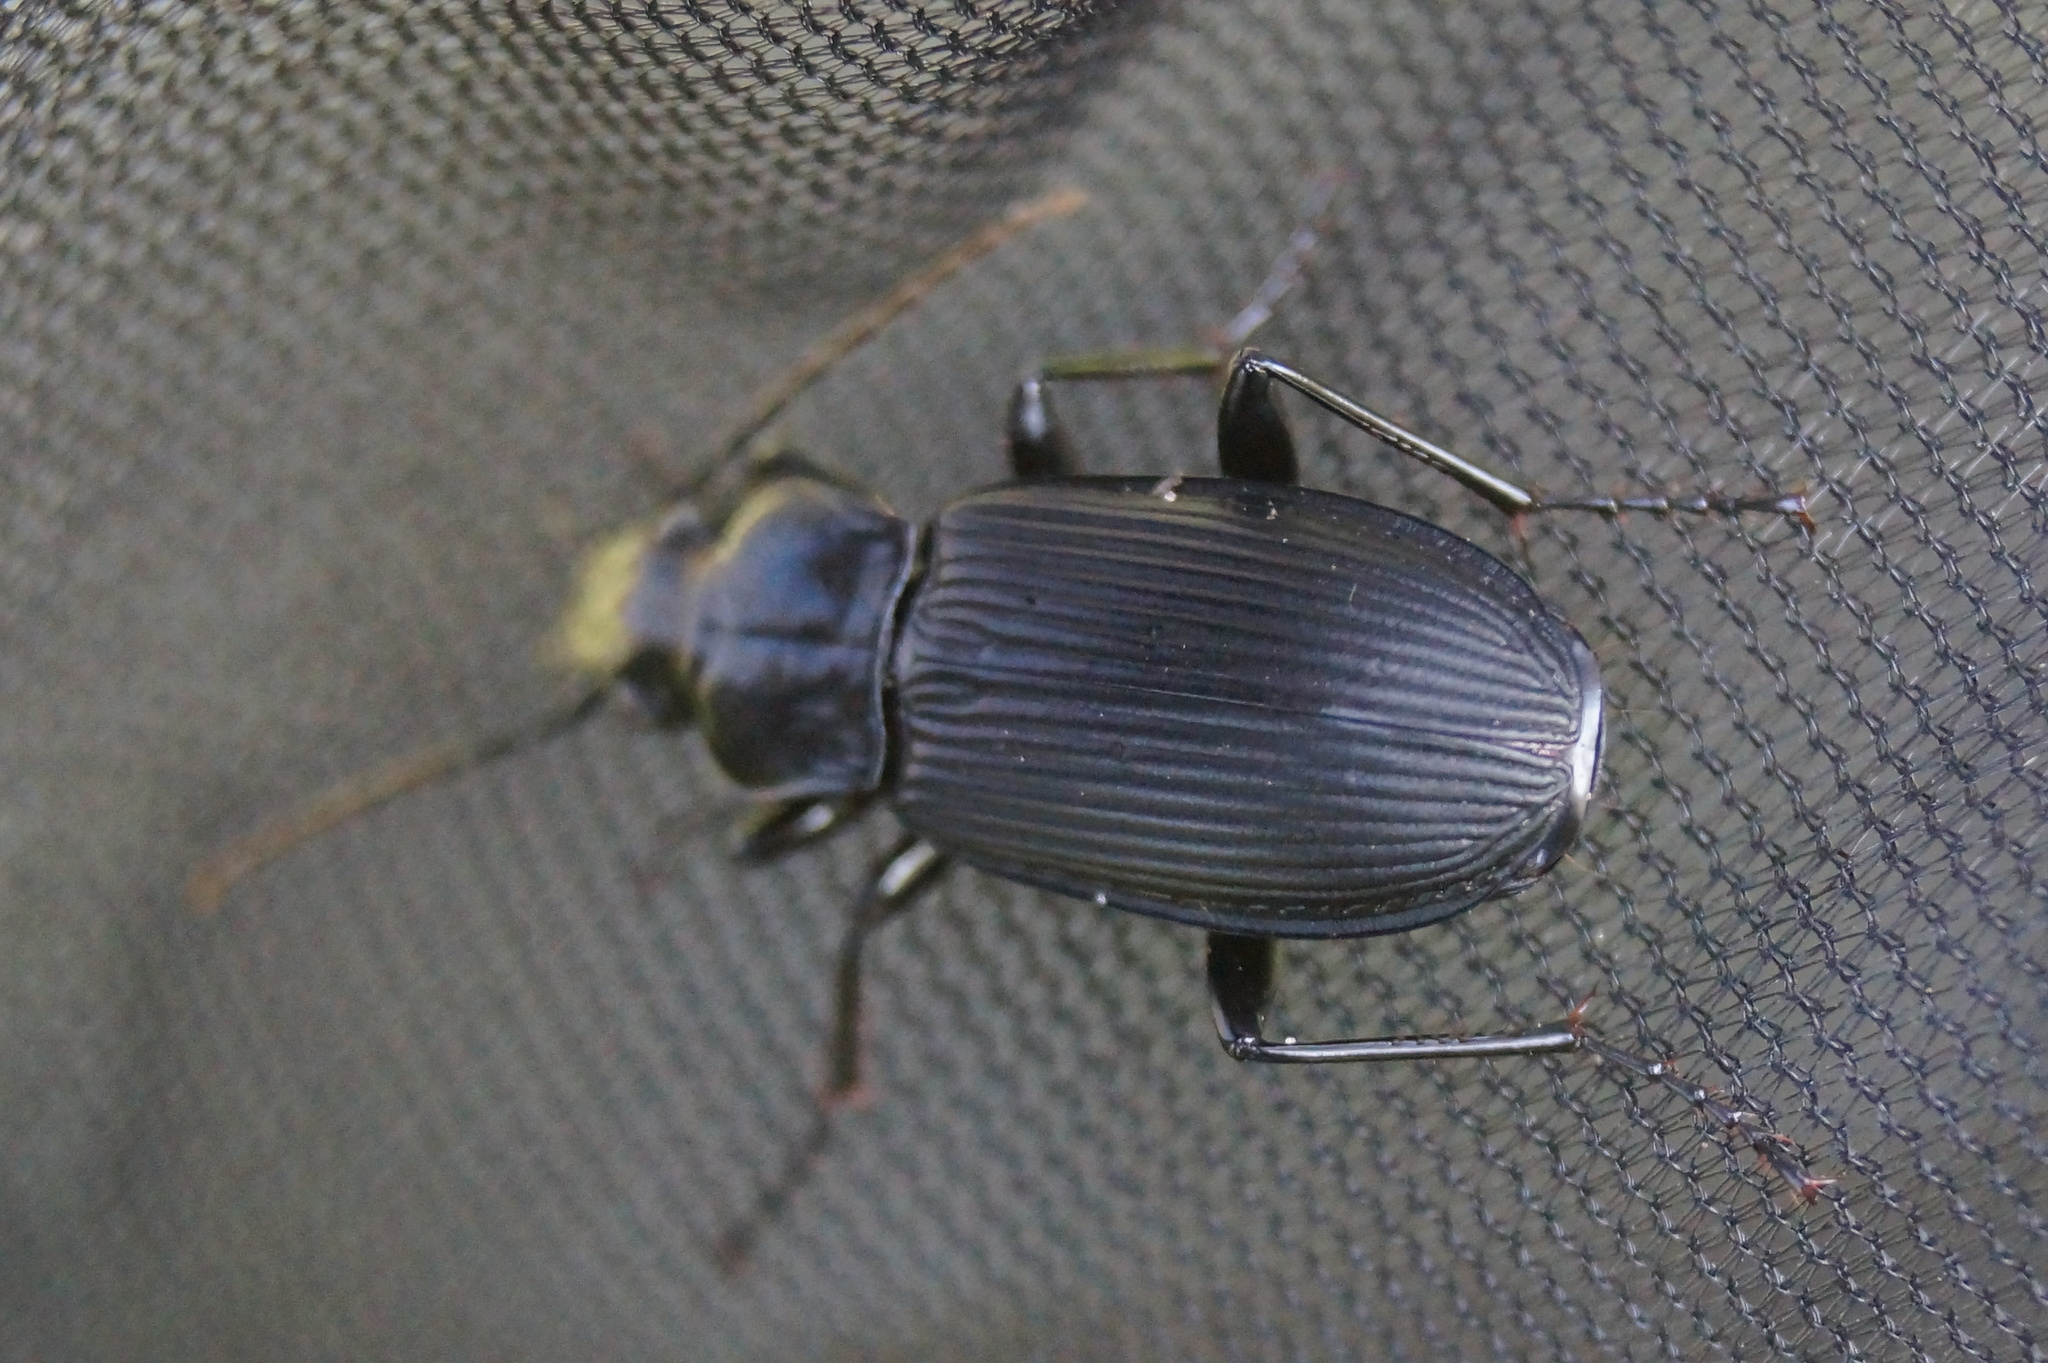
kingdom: Animalia
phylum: Arthropoda
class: Insecta
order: Coleoptera
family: Carabidae
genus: Pterostichus
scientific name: Pterostichus niger
